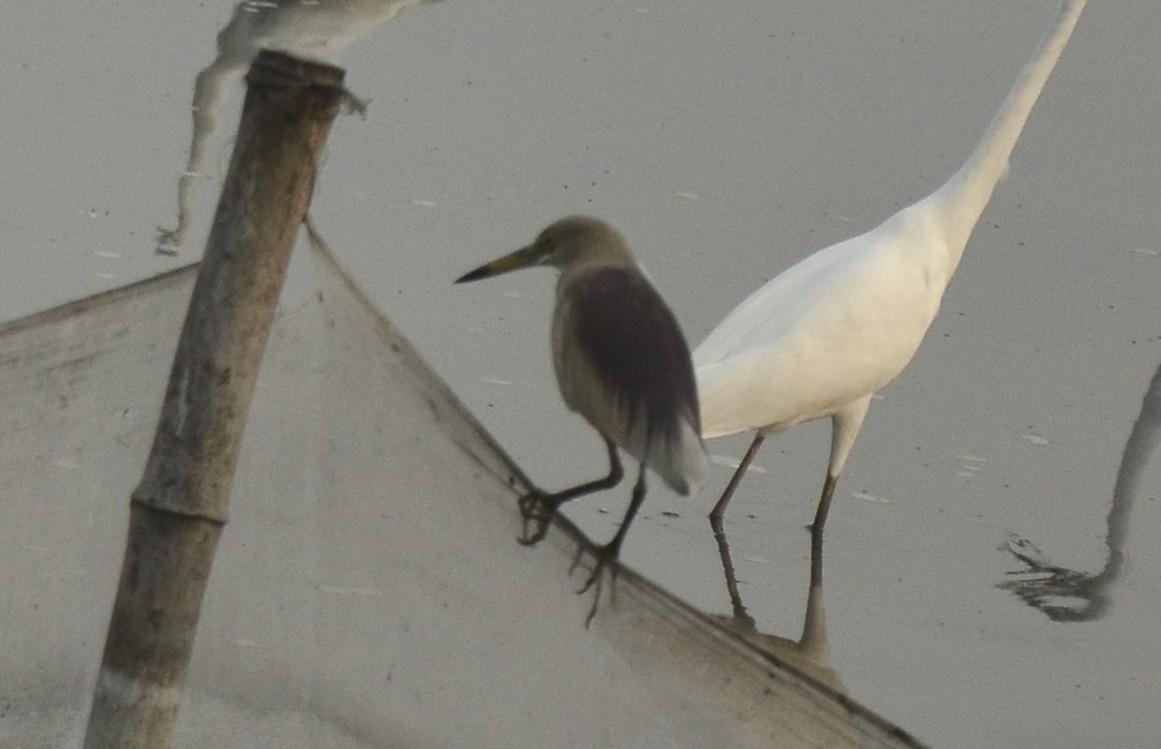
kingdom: Animalia
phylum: Chordata
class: Aves
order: Pelecaniformes
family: Ardeidae
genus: Ardeola
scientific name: Ardeola grayii
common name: Indian pond heron
